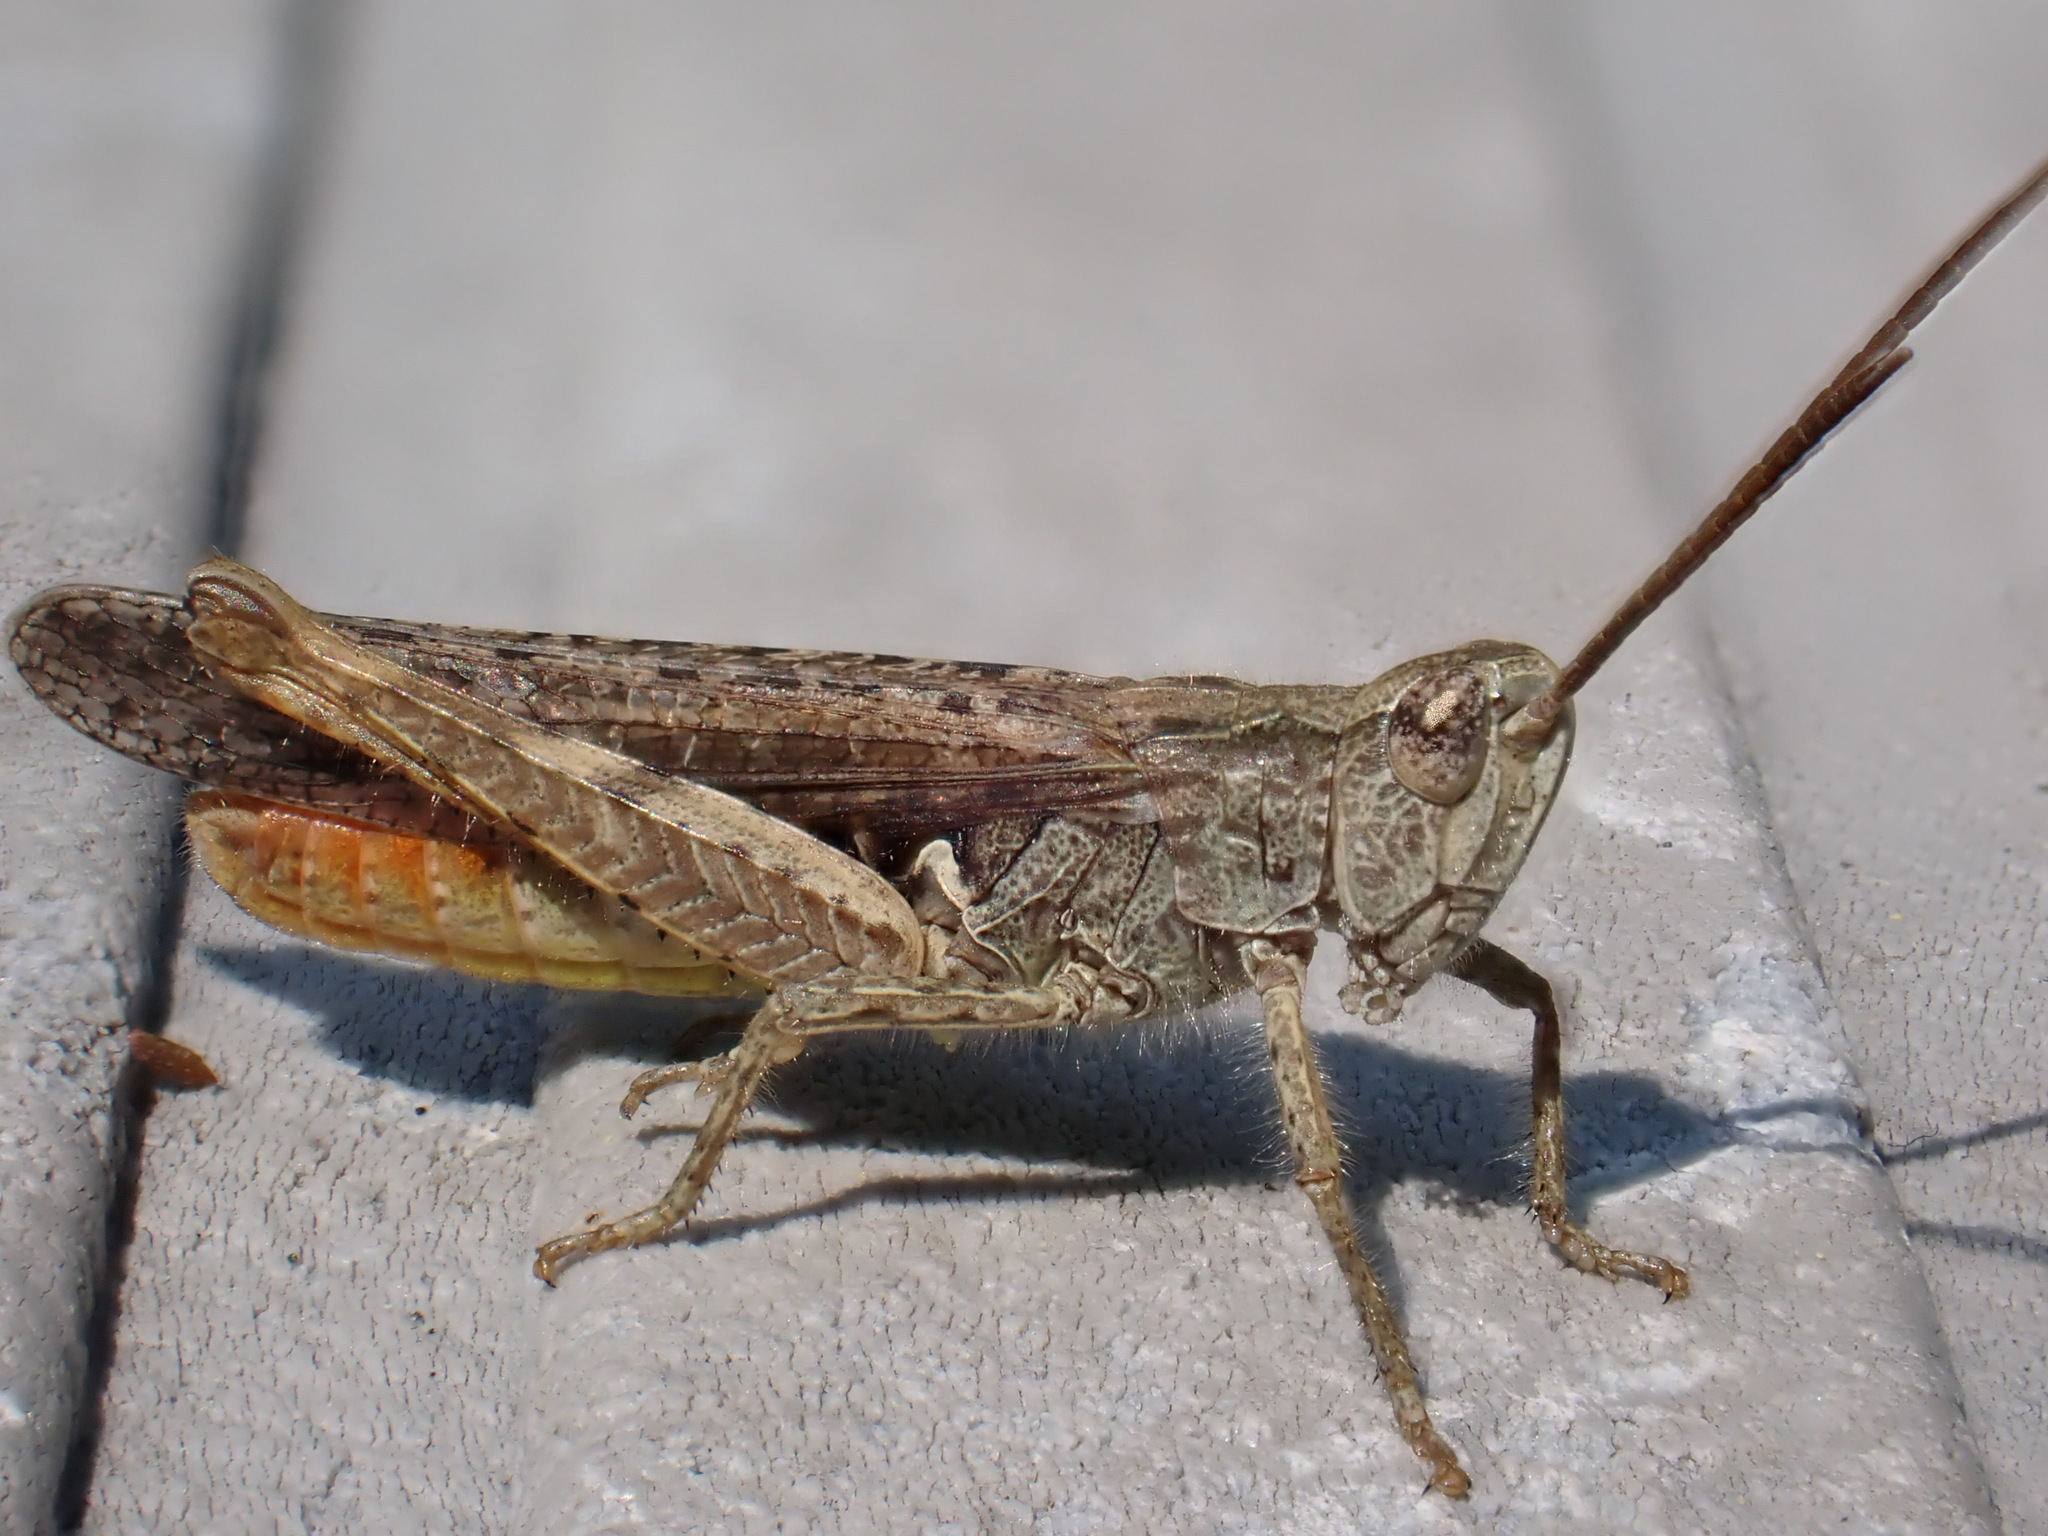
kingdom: Animalia
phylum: Arthropoda
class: Insecta
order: Orthoptera
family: Acrididae
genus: Chorthippus
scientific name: Chorthippus brunneus
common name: Field grasshopper
